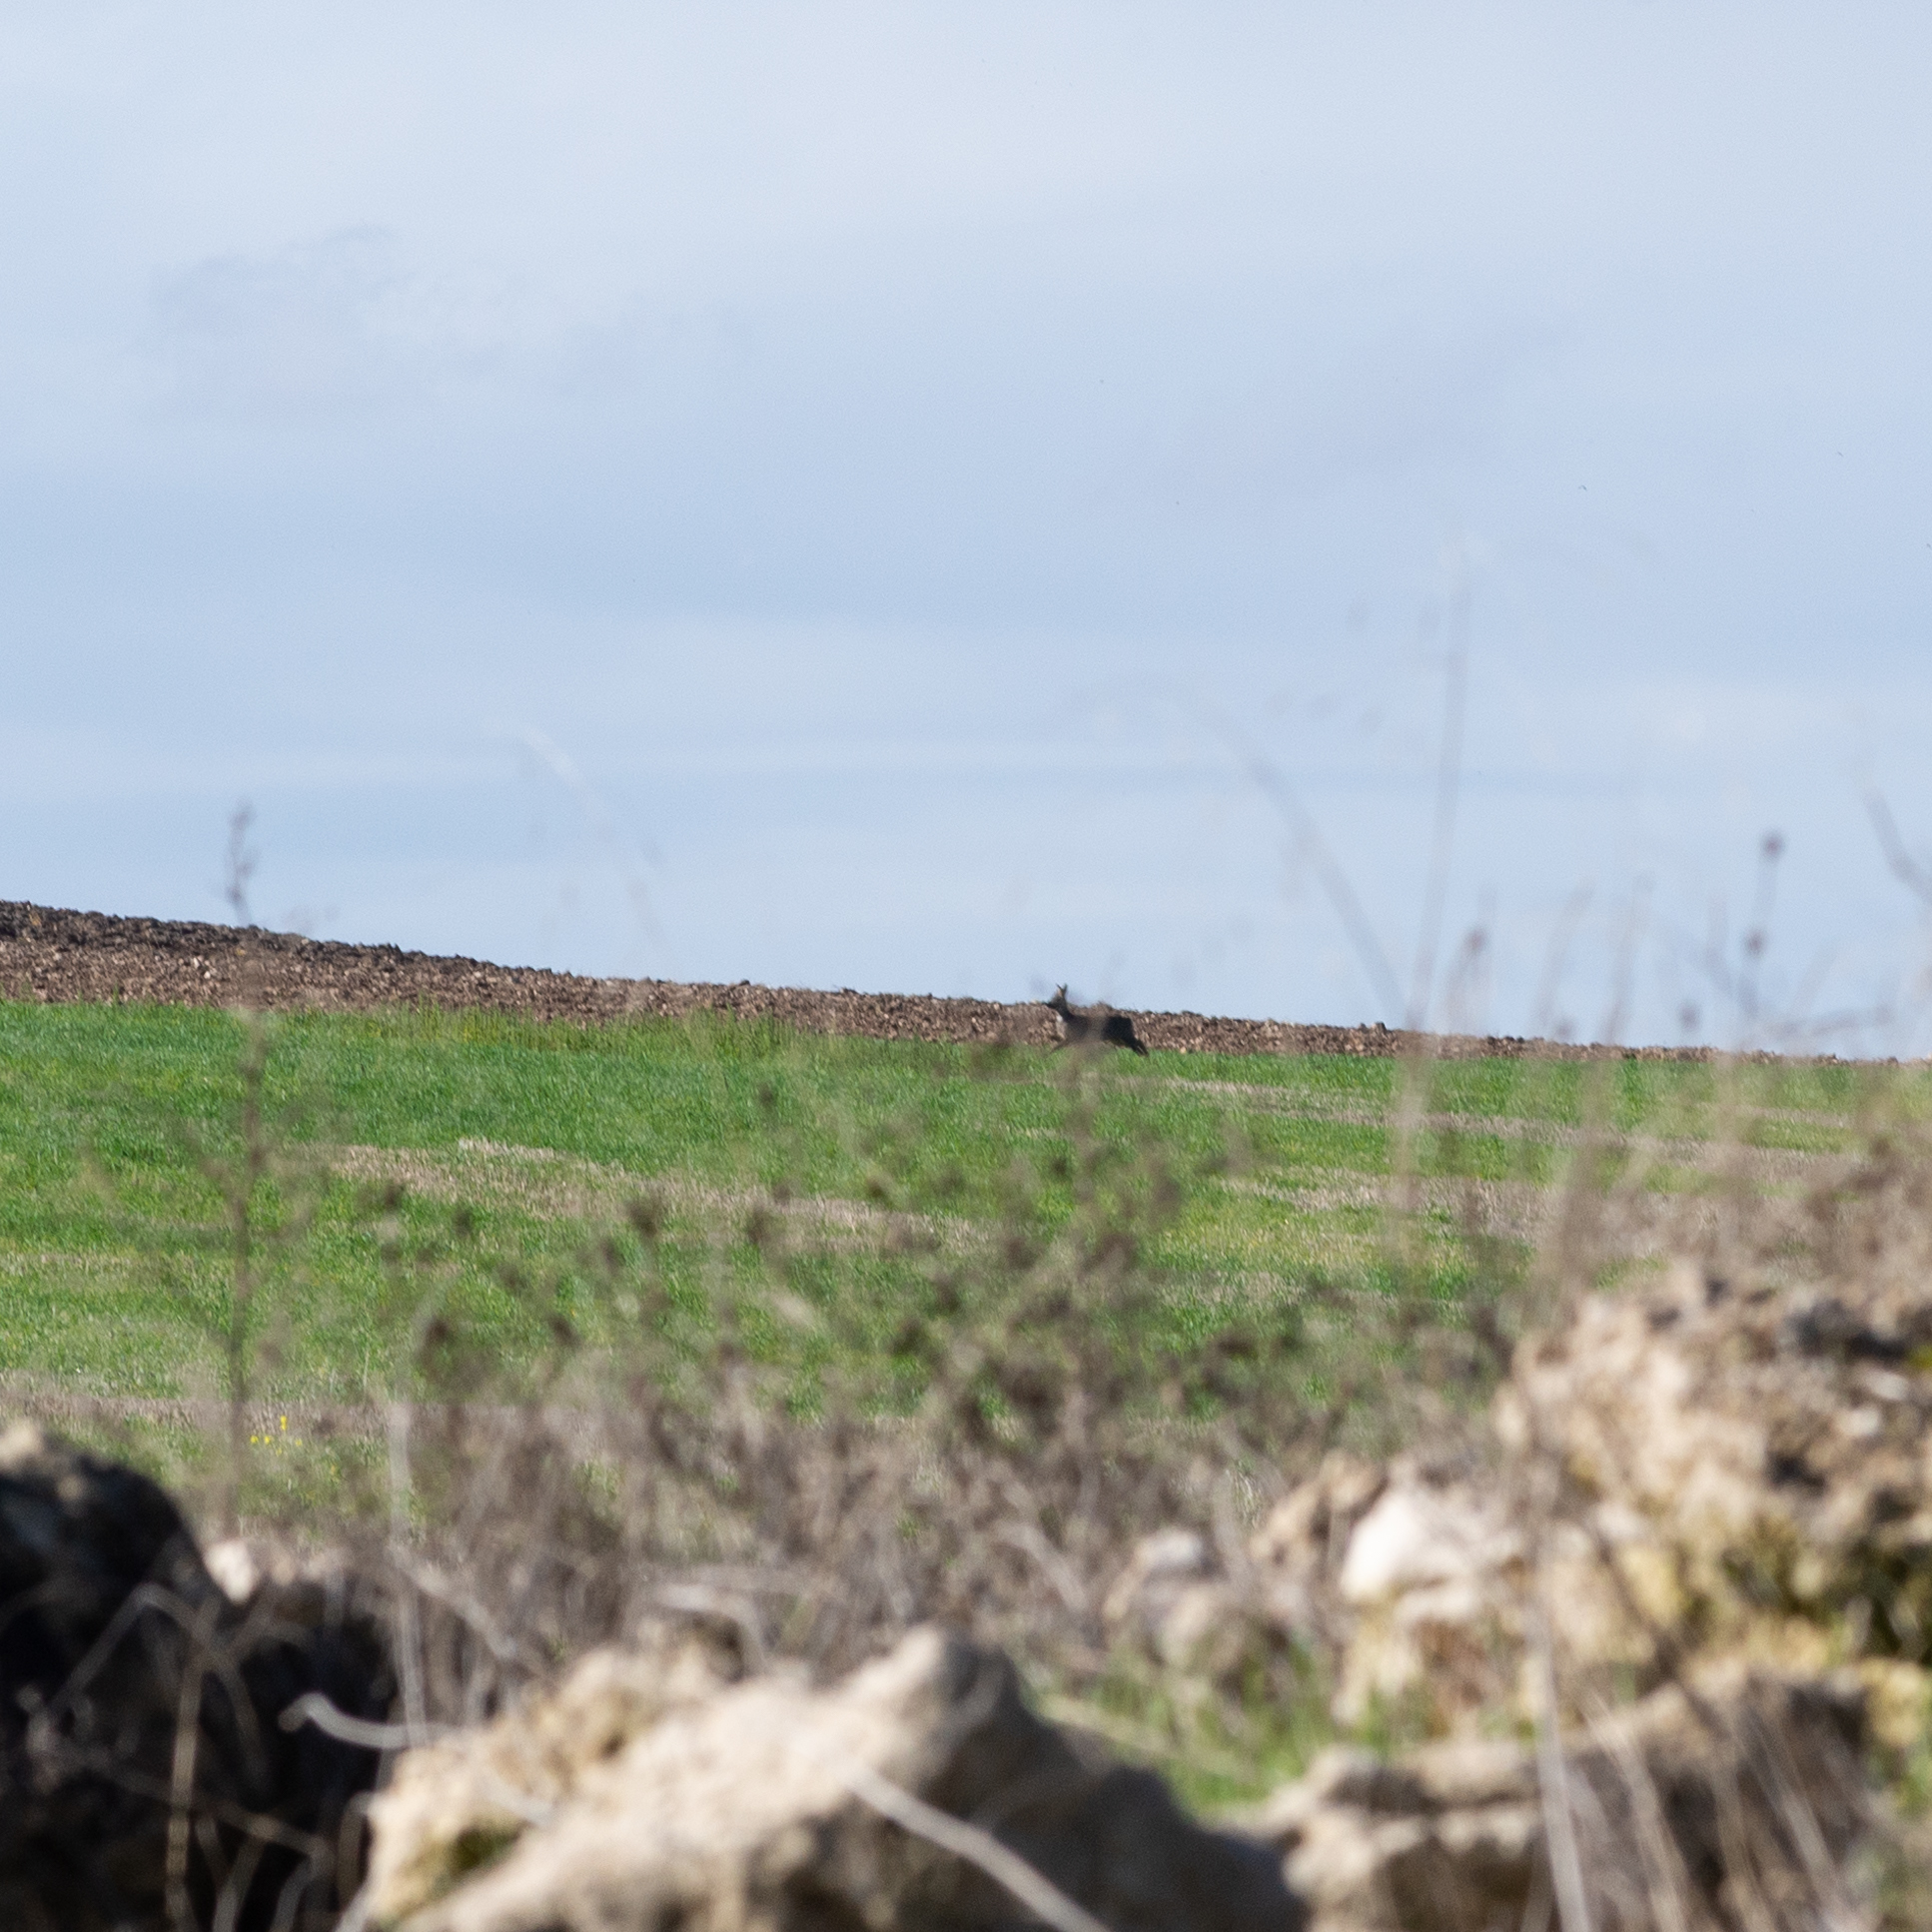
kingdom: Animalia
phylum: Chordata
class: Mammalia
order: Artiodactyla
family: Cervidae
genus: Capreolus
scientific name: Capreolus capreolus
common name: Western roe deer
